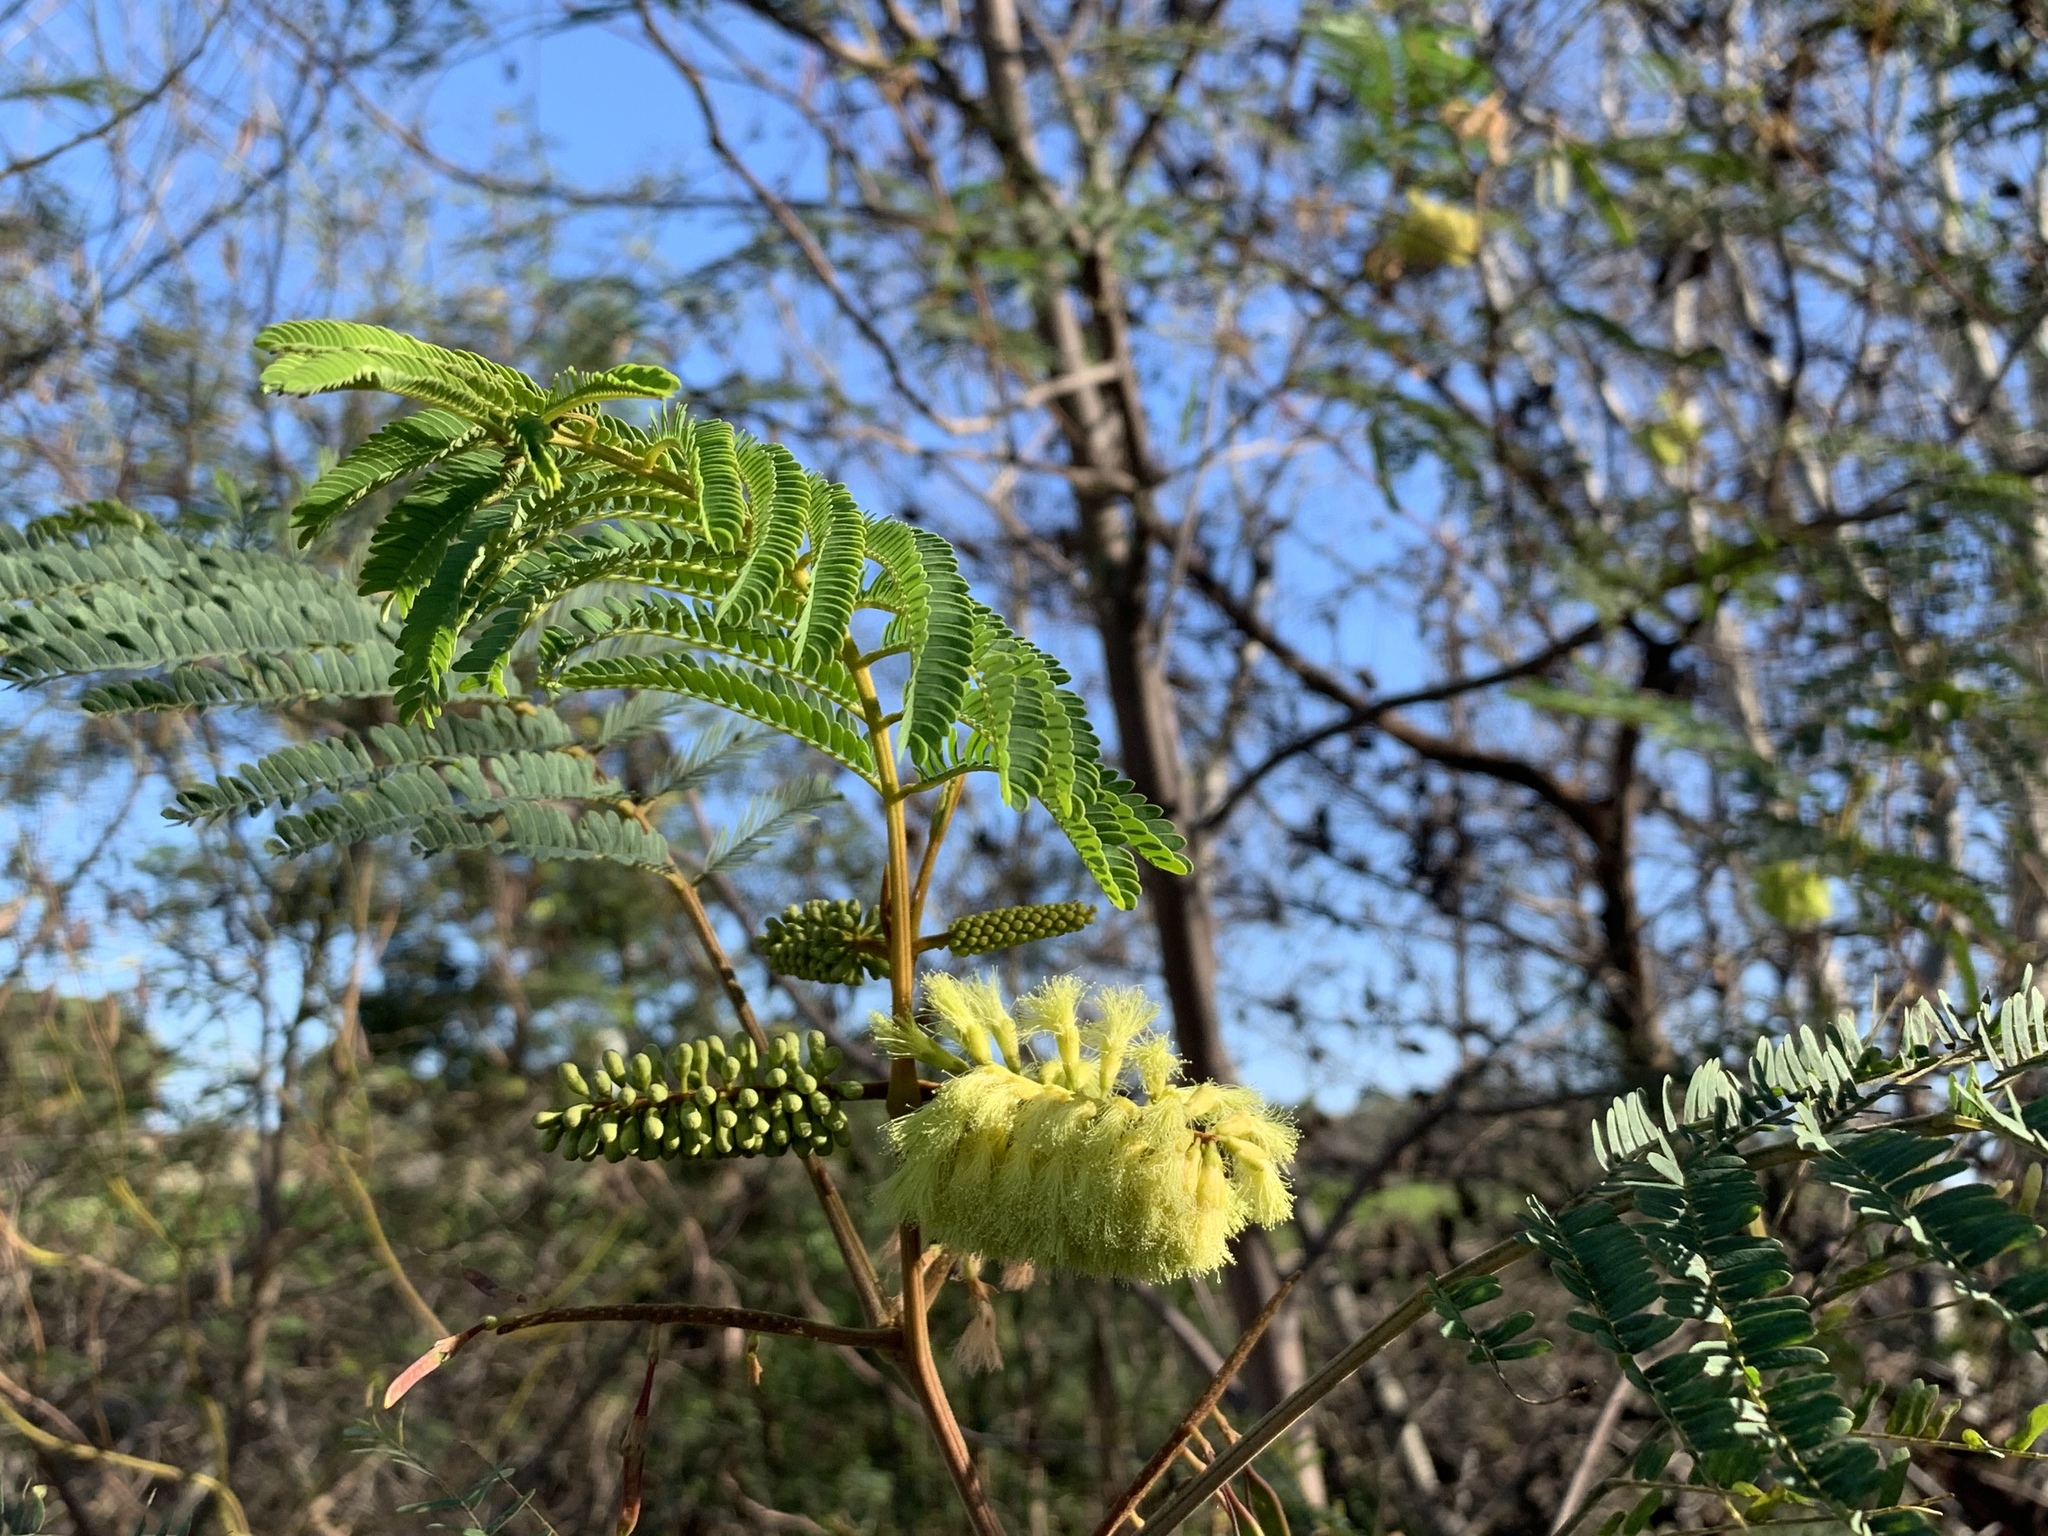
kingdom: Plantae
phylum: Tracheophyta
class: Magnoliopsida
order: Fabales
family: Fabaceae
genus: Paraserianthes
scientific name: Paraserianthes lophantha
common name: Plume albizia
